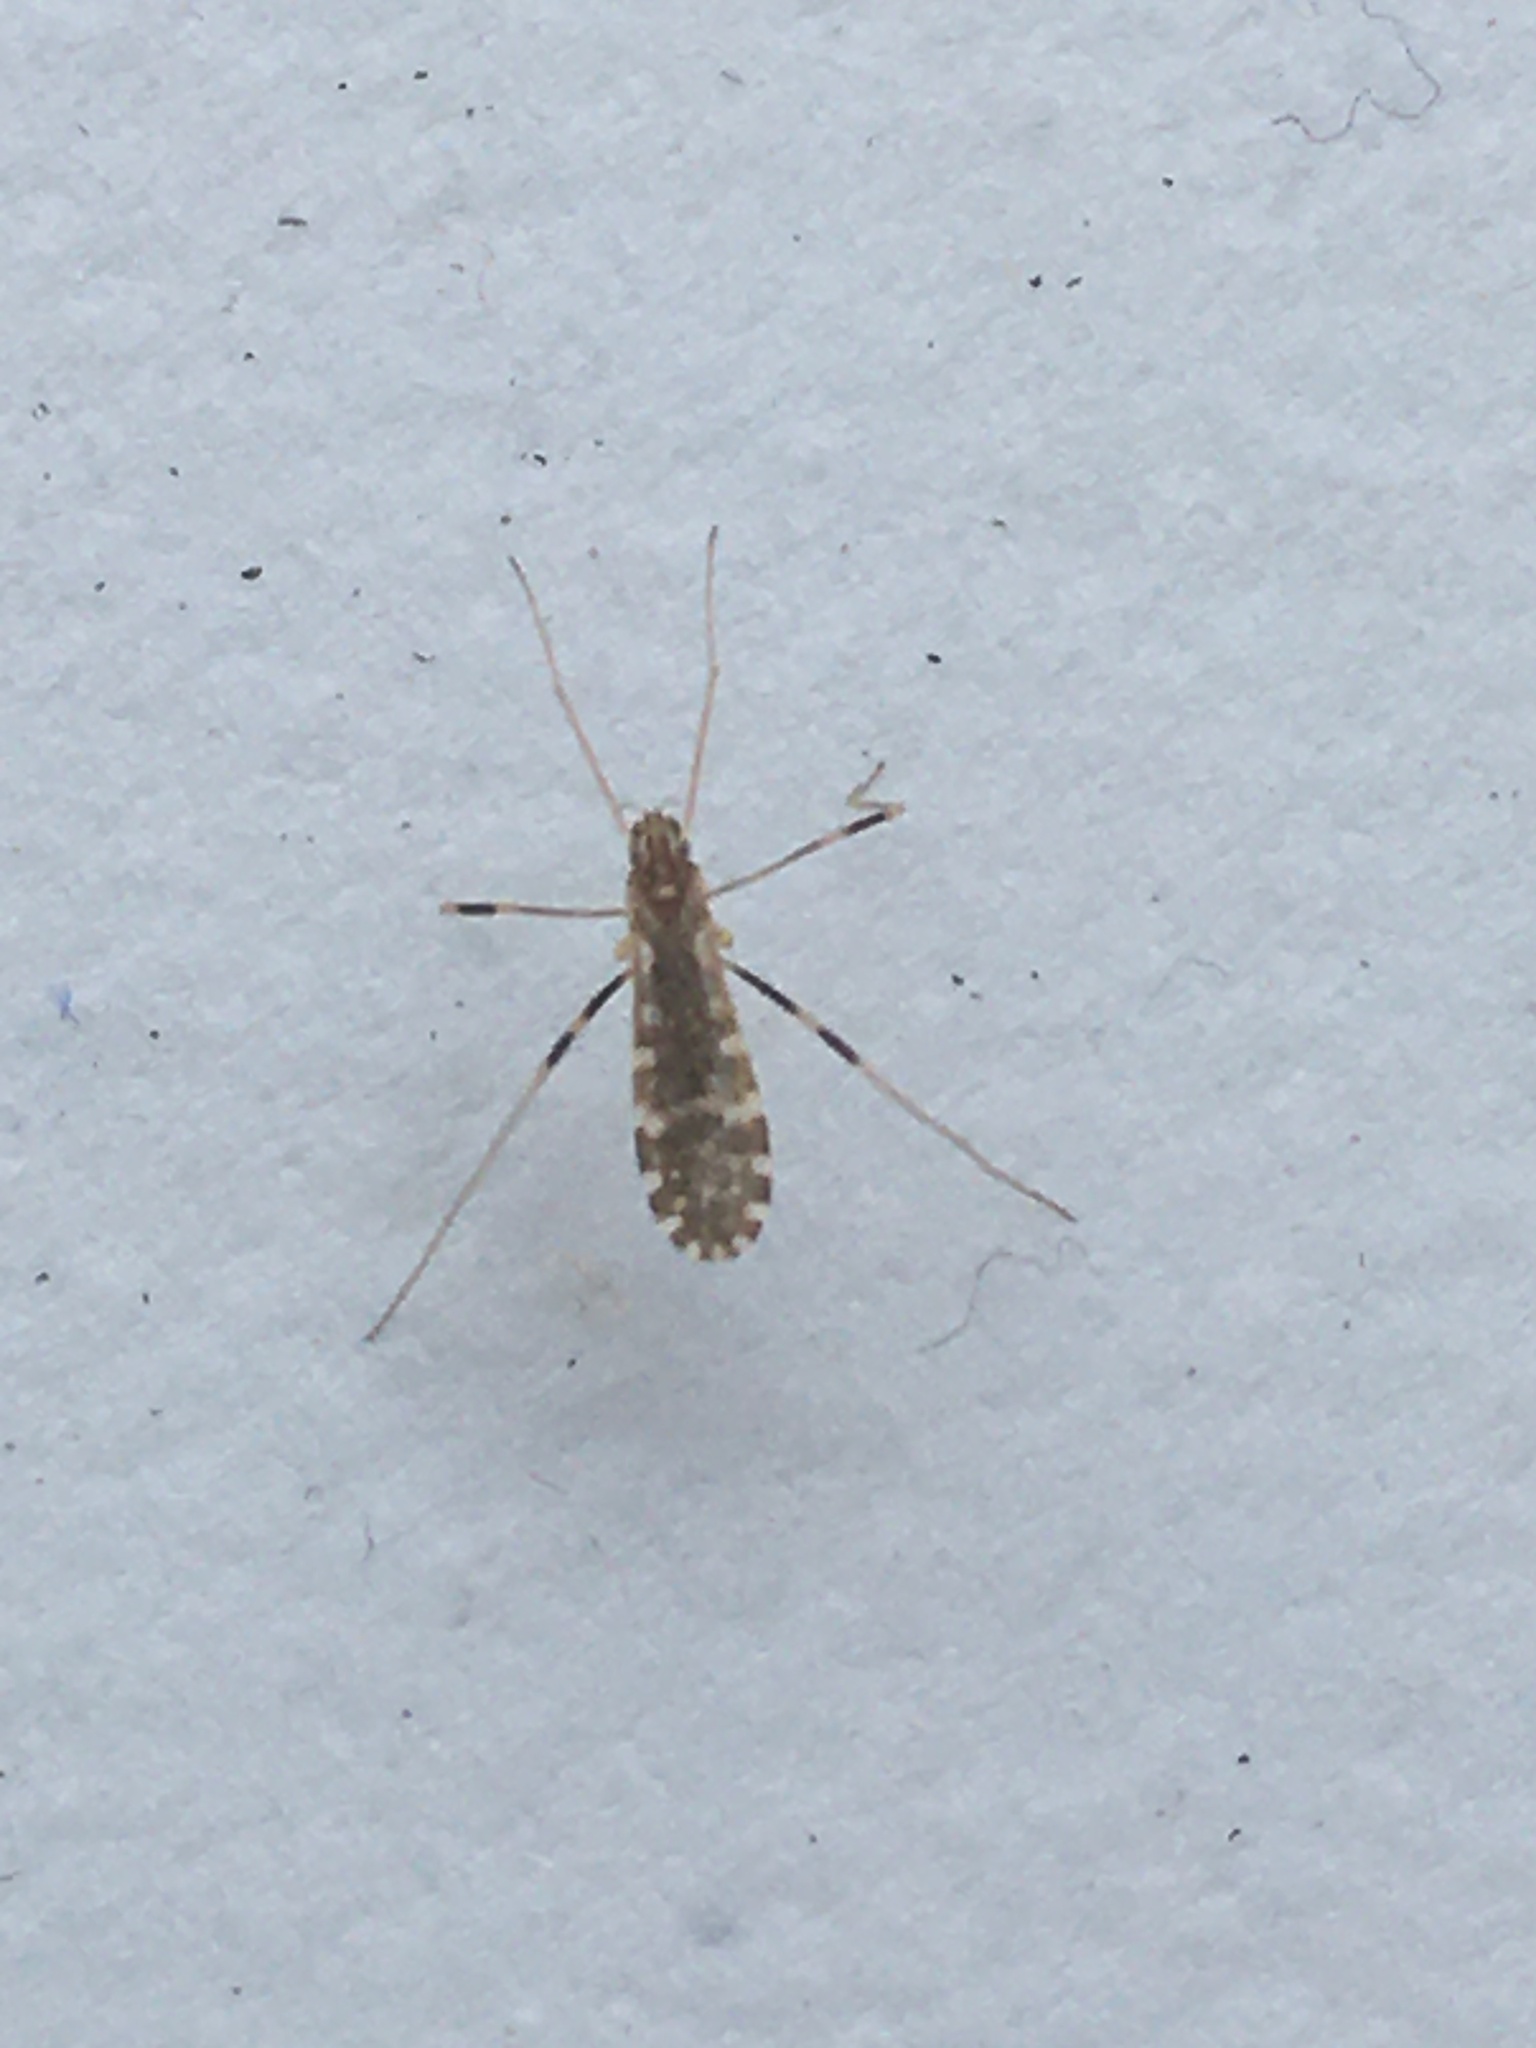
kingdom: Animalia
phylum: Arthropoda
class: Insecta
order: Diptera
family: Limoniidae
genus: Erioptera
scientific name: Erioptera caliptera
